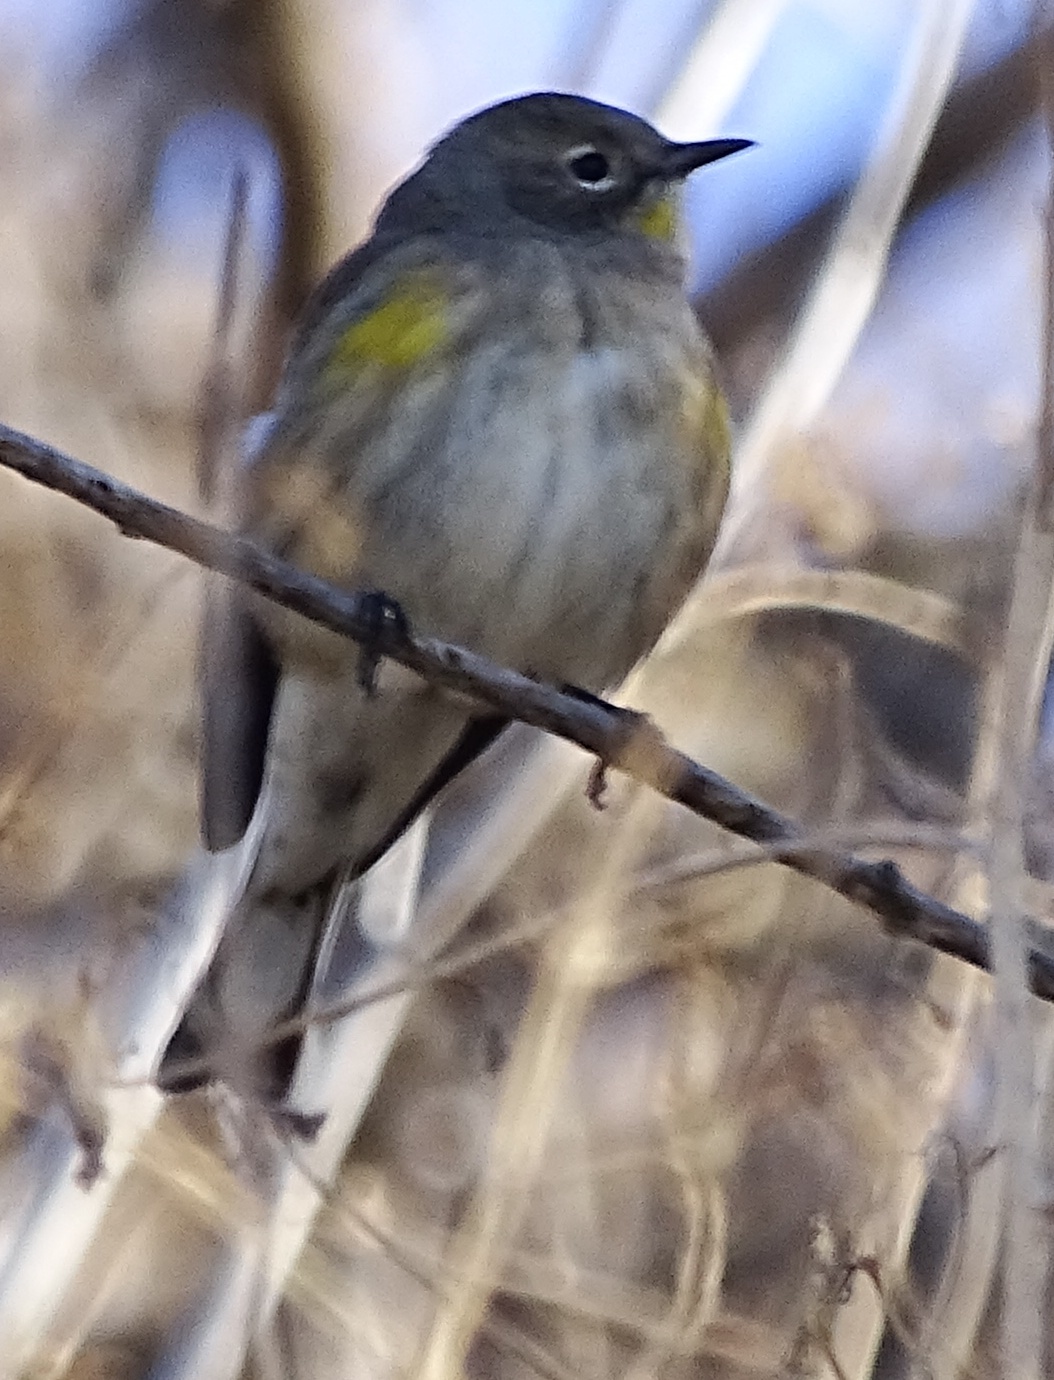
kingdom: Animalia
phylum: Chordata
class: Aves
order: Passeriformes
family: Parulidae
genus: Setophaga
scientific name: Setophaga coronata
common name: Myrtle warbler
